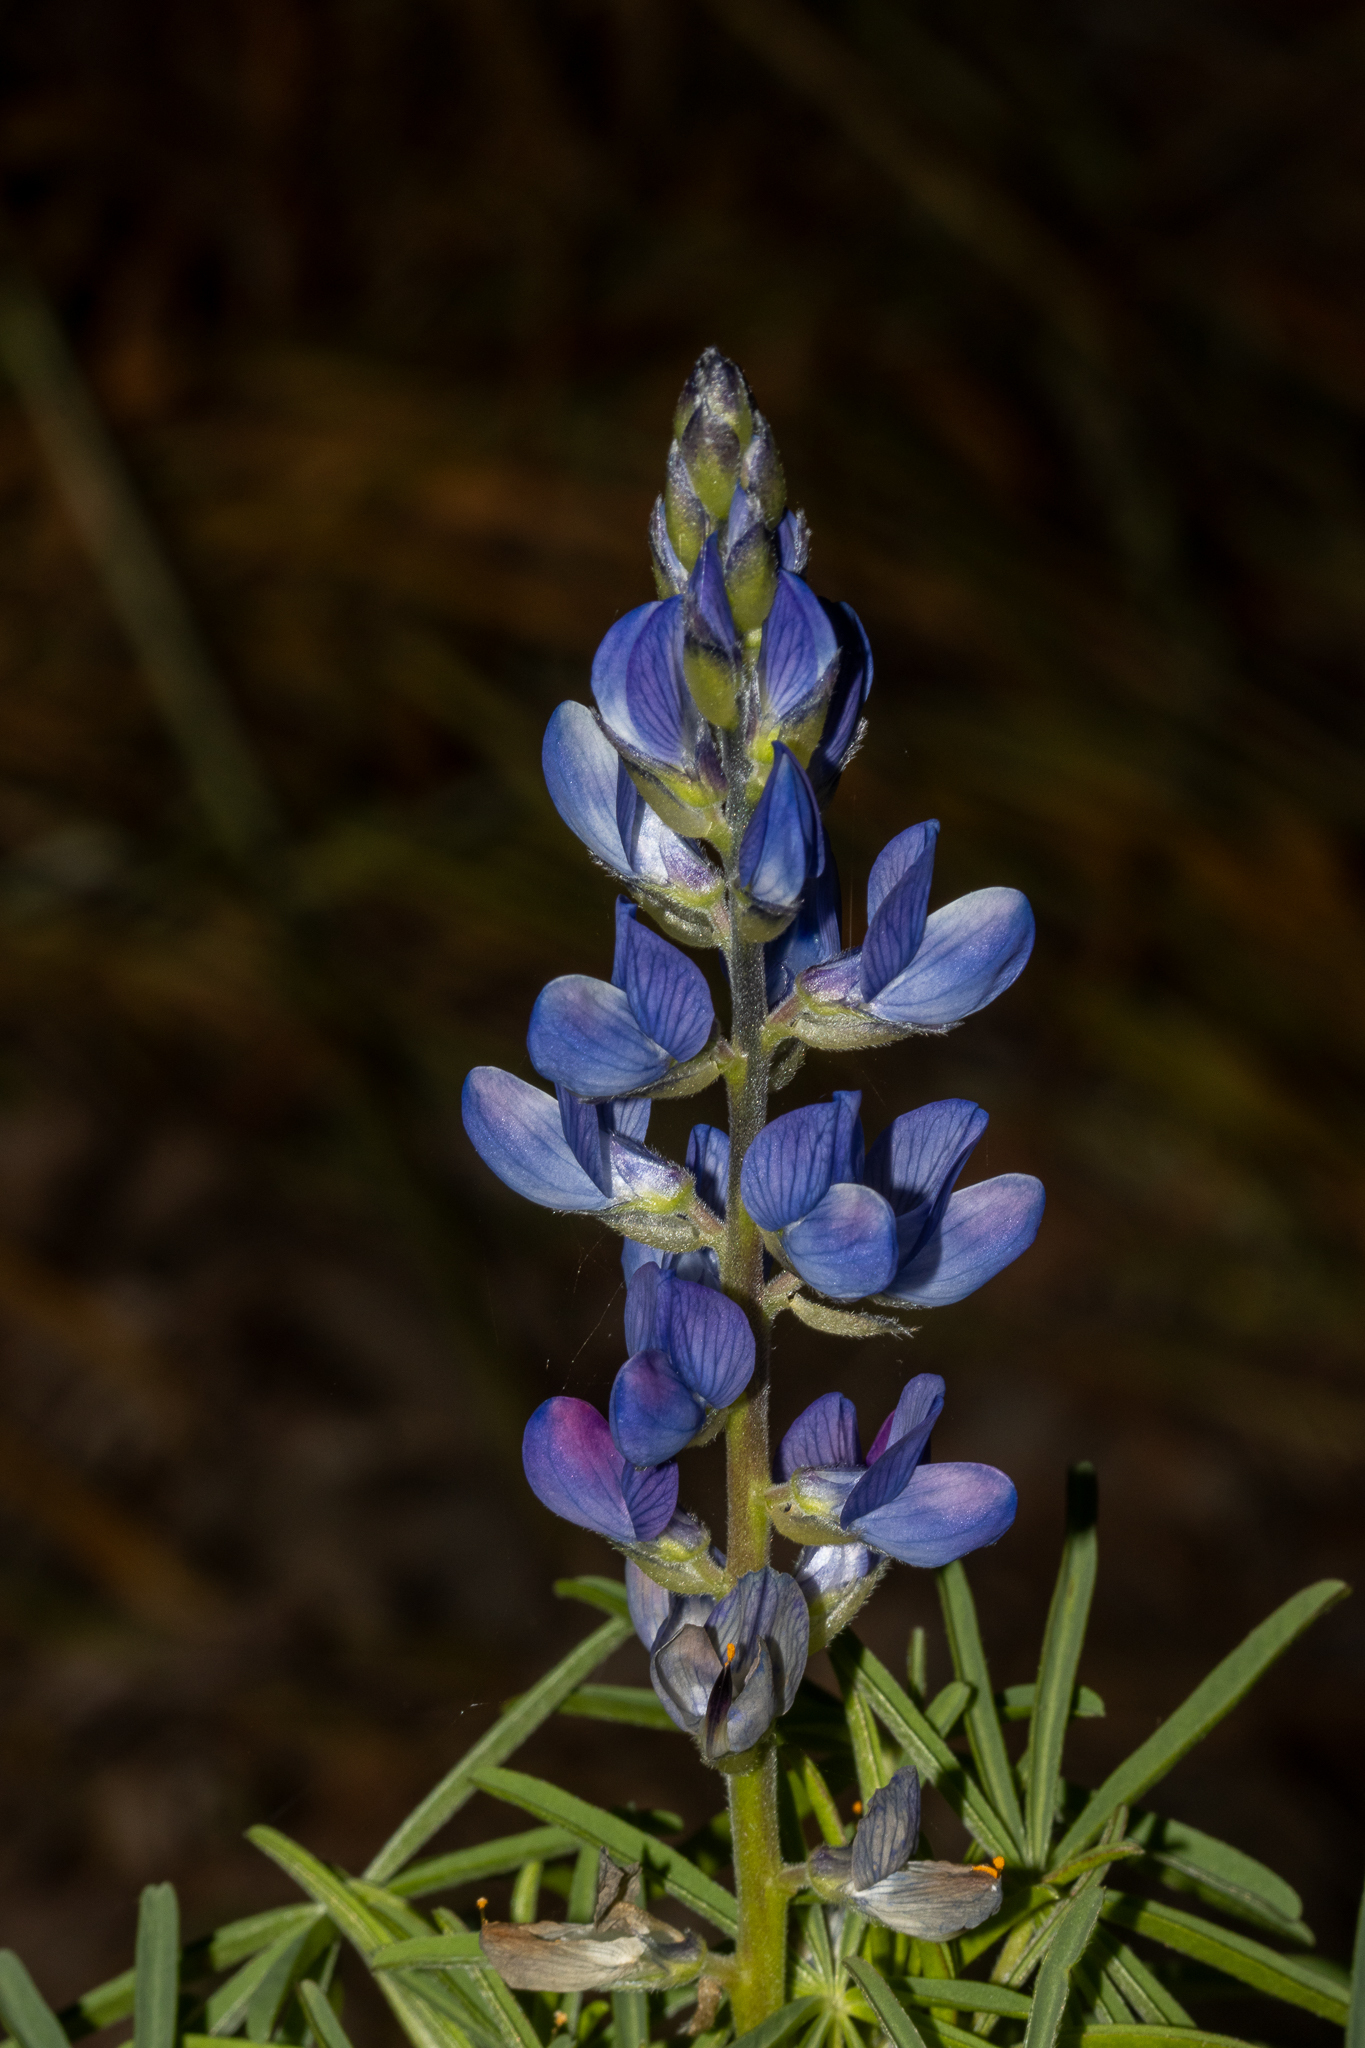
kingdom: Plantae
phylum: Tracheophyta
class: Magnoliopsida
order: Fabales
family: Fabaceae
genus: Lupinus
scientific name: Lupinus angustifolius
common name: Narrow-leaved lupin
